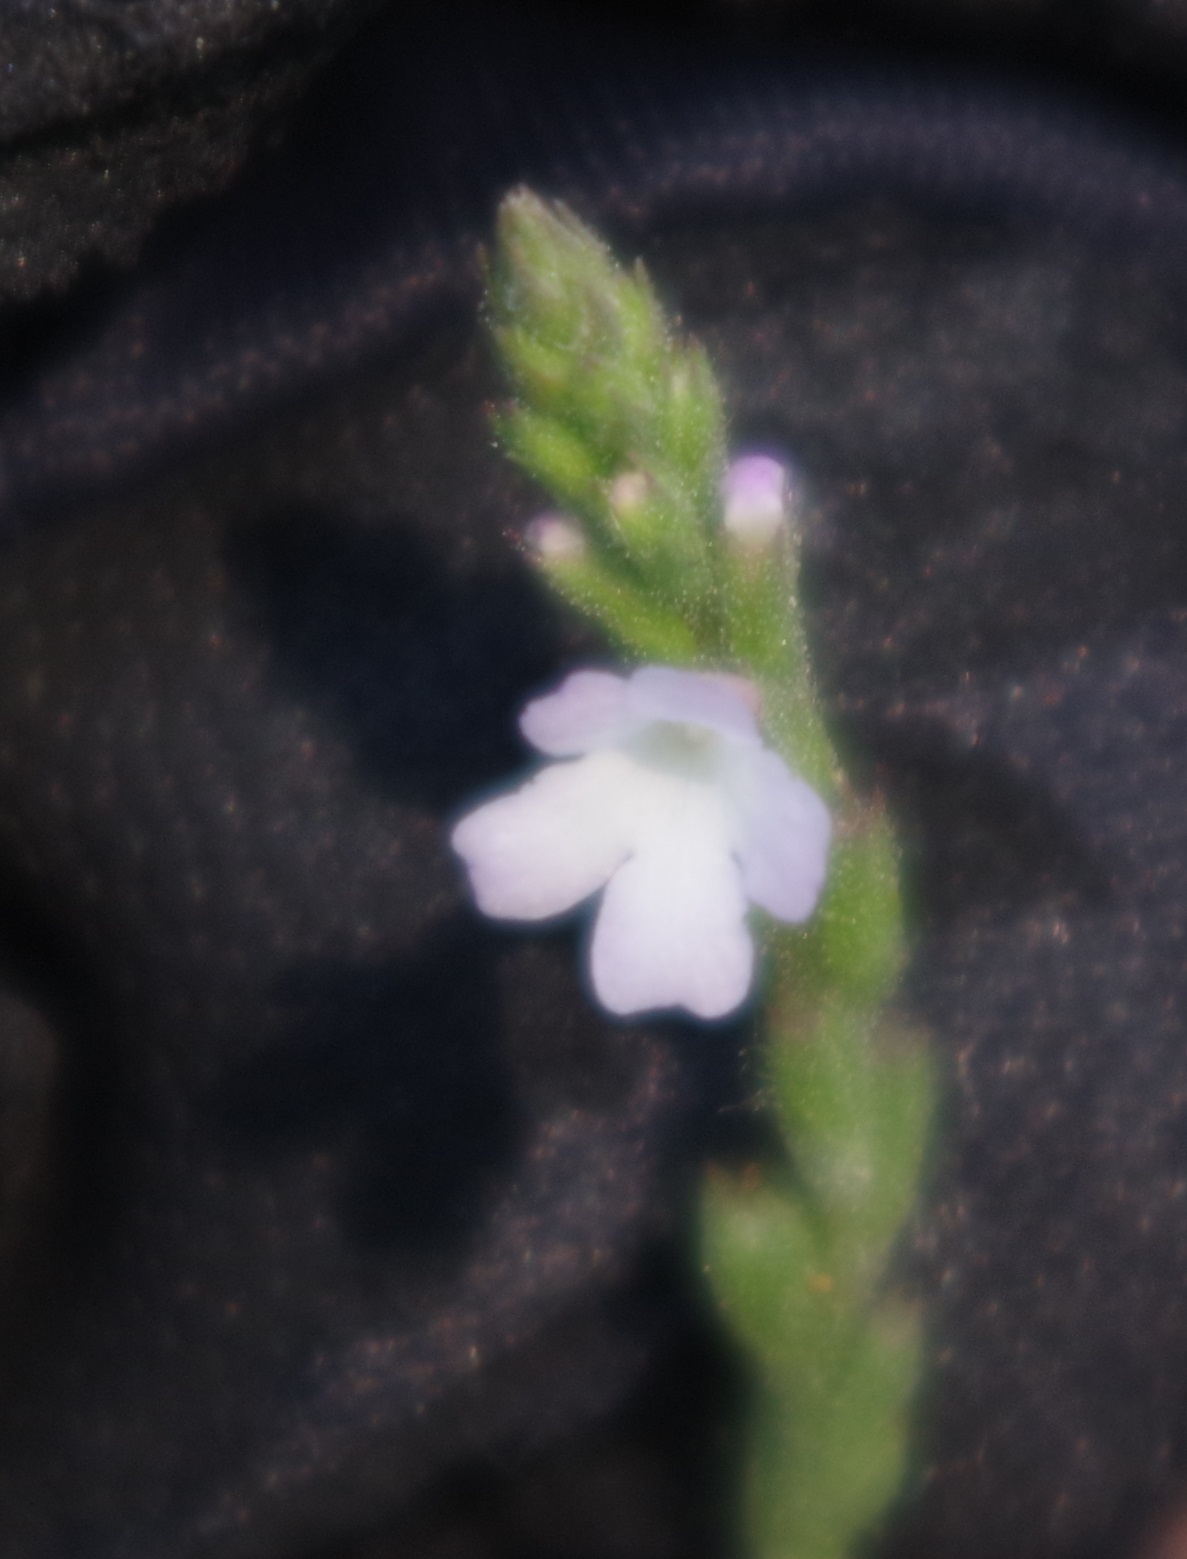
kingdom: Plantae
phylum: Tracheophyta
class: Magnoliopsida
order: Lamiales
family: Verbenaceae
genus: Verbena
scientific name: Verbena officinalis
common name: Vervain
